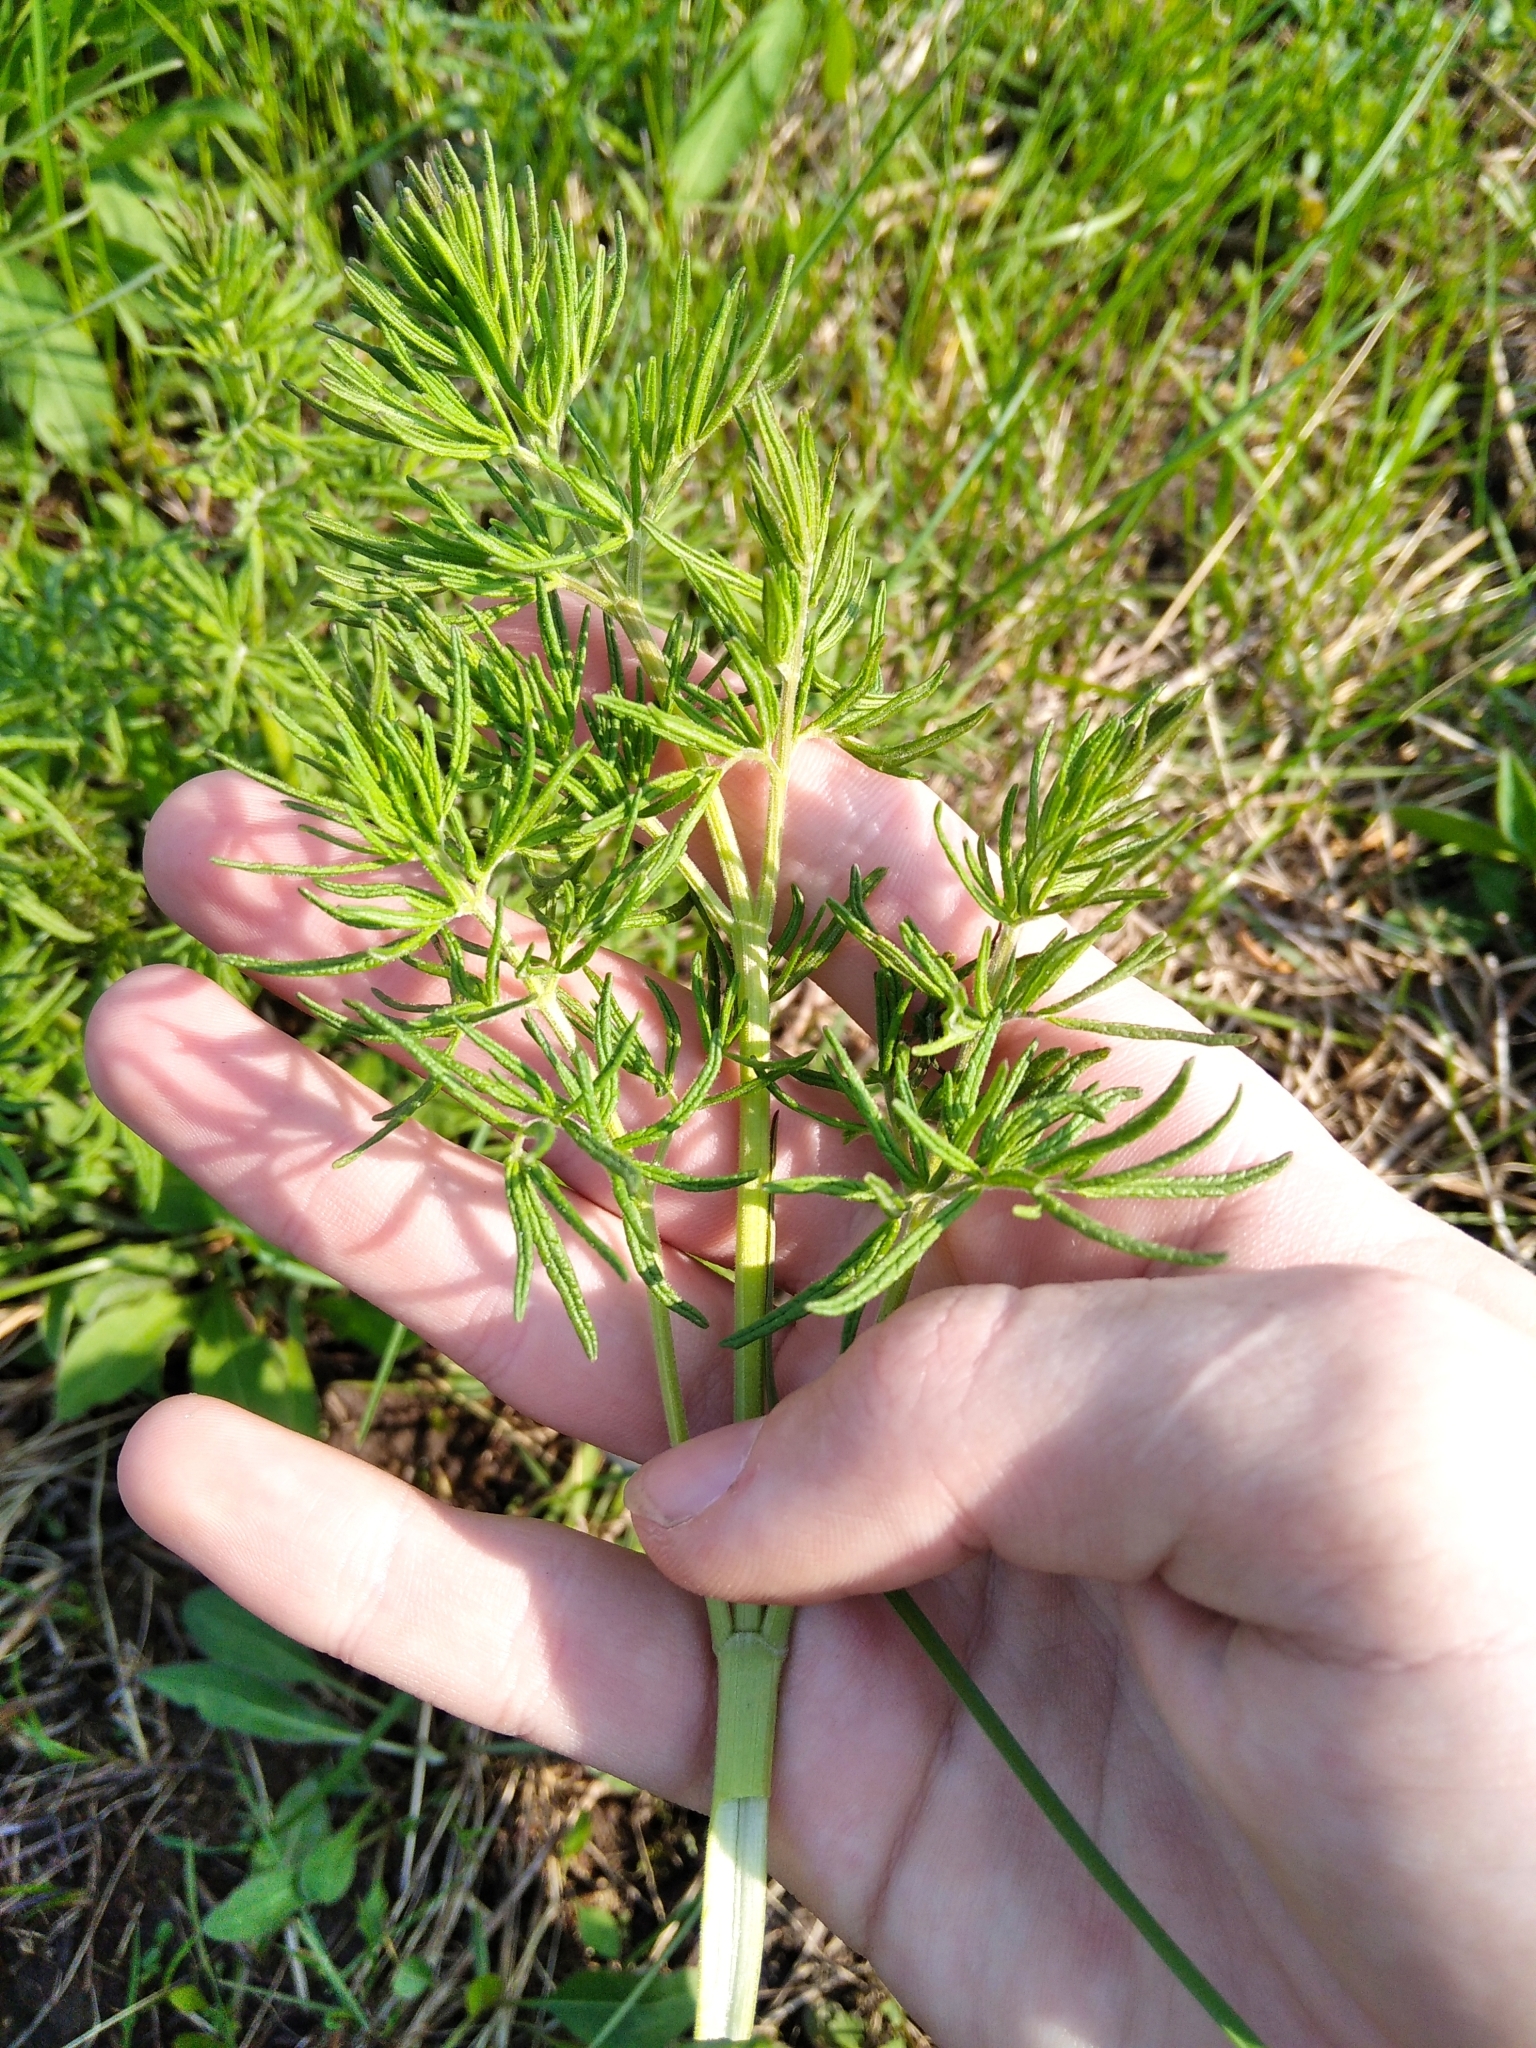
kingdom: Plantae
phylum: Tracheophyta
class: Magnoliopsida
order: Ranunculales
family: Ranunculaceae
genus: Thalictrum
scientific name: Thalictrum lucidum
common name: Shining meadow-rue
